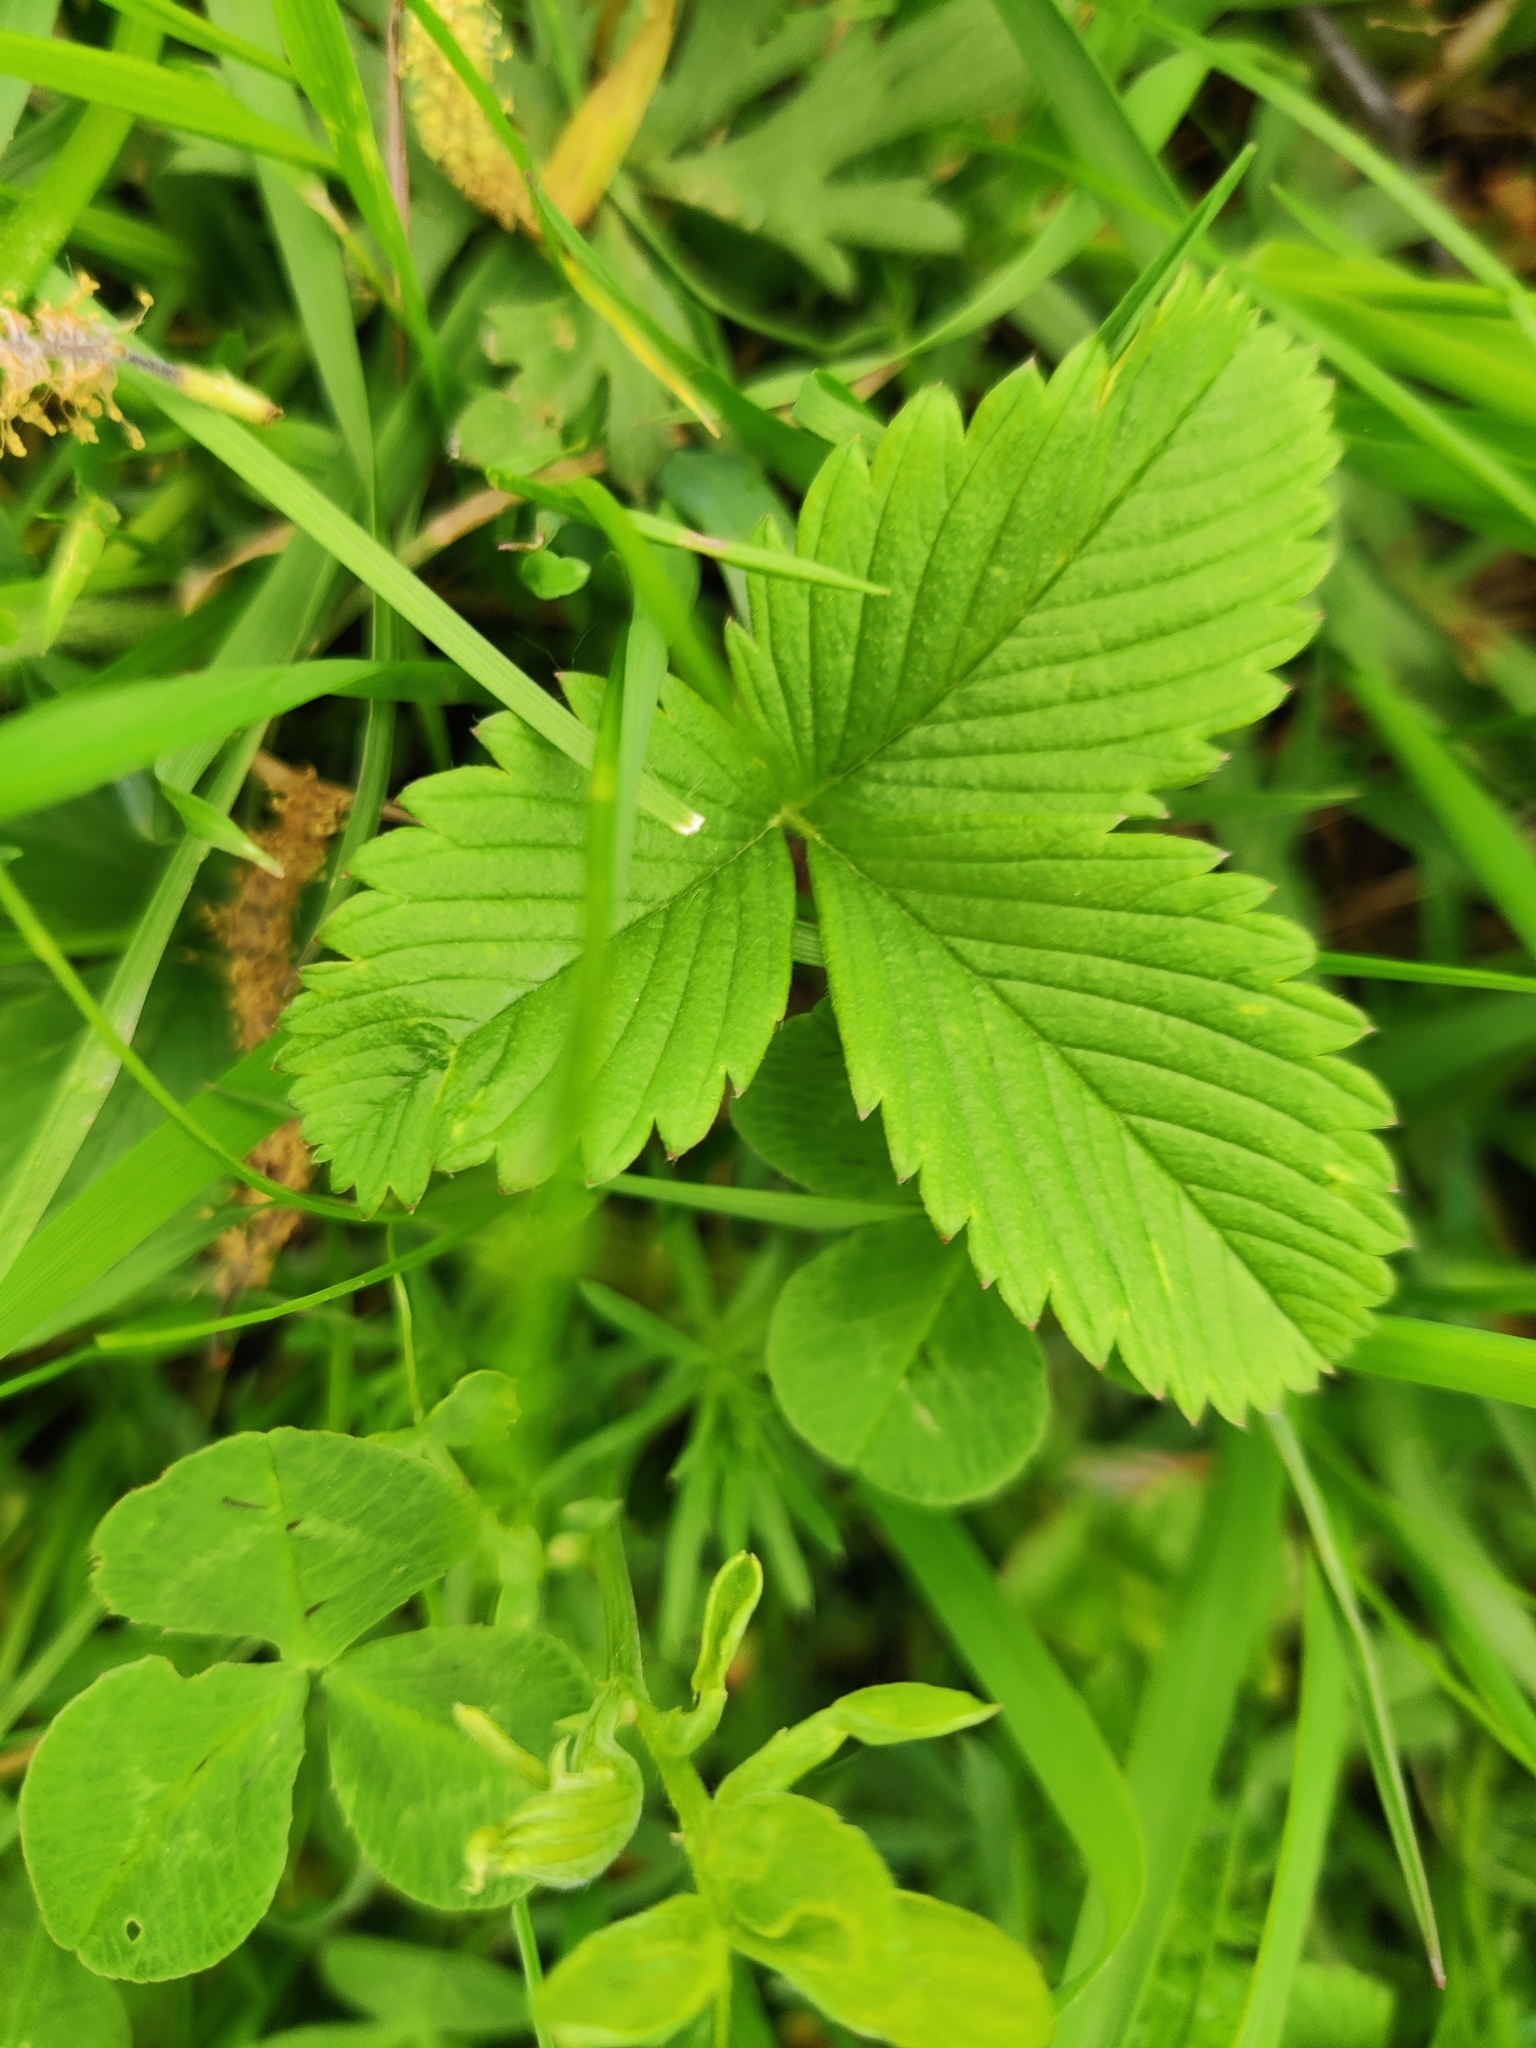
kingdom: Plantae
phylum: Tracheophyta
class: Magnoliopsida
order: Rosales
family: Rosaceae
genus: Fragaria
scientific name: Fragaria viridis
